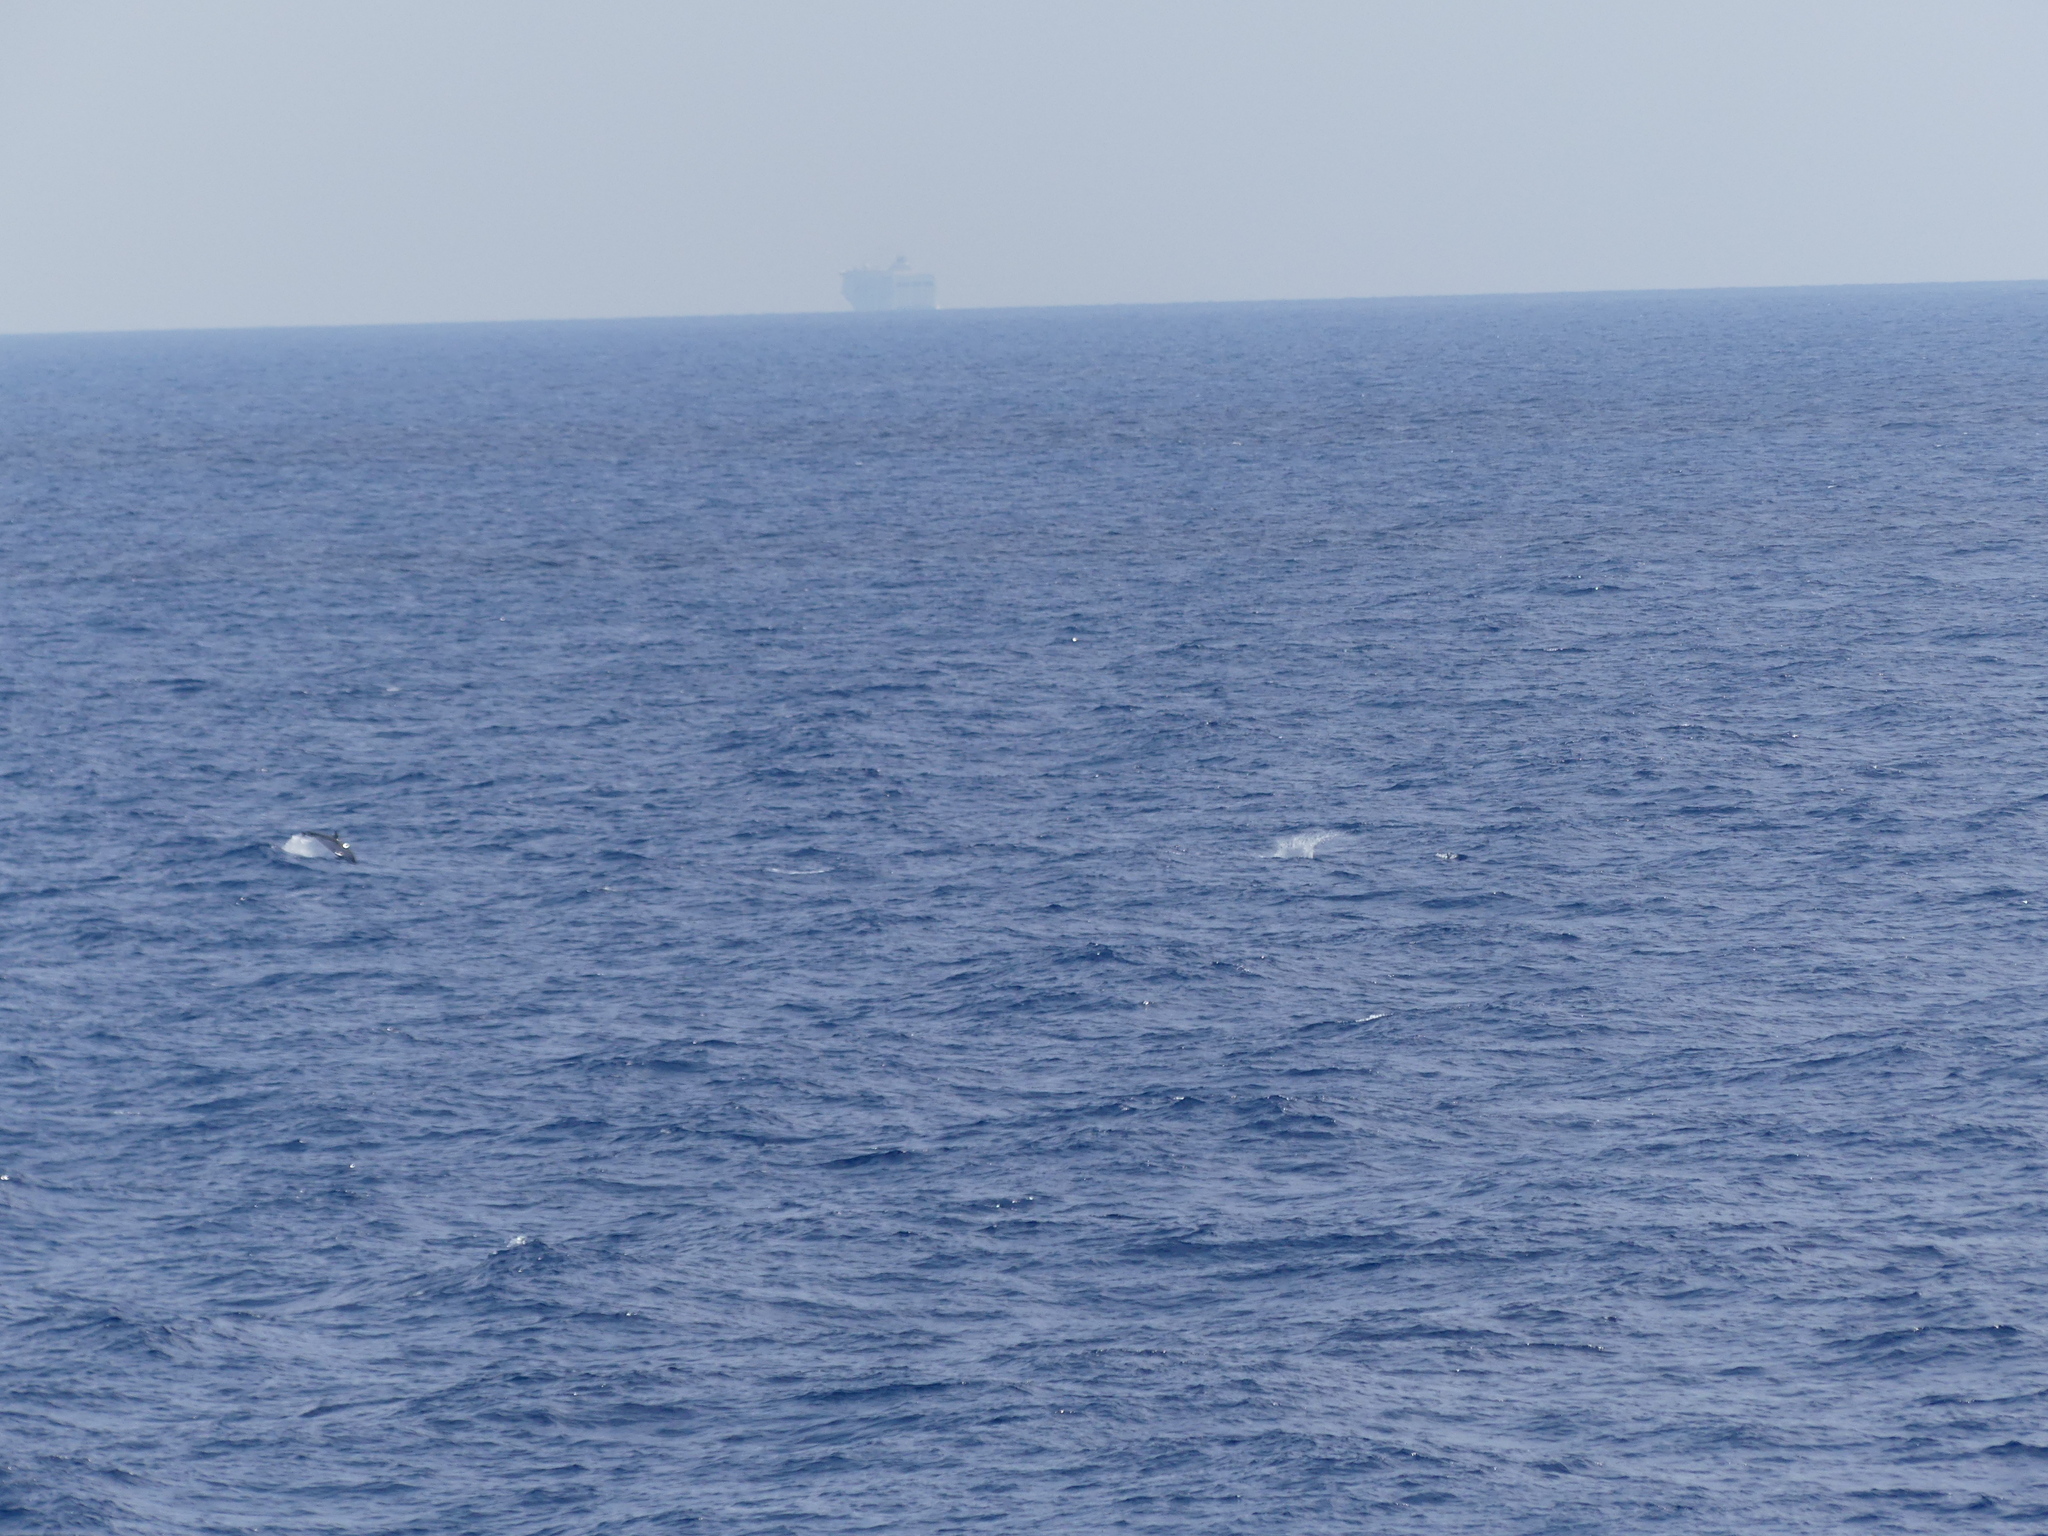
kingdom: Animalia
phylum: Chordata
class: Mammalia
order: Cetacea
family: Delphinidae
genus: Stenella
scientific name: Stenella coeruleoalba
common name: Striped dolphin
